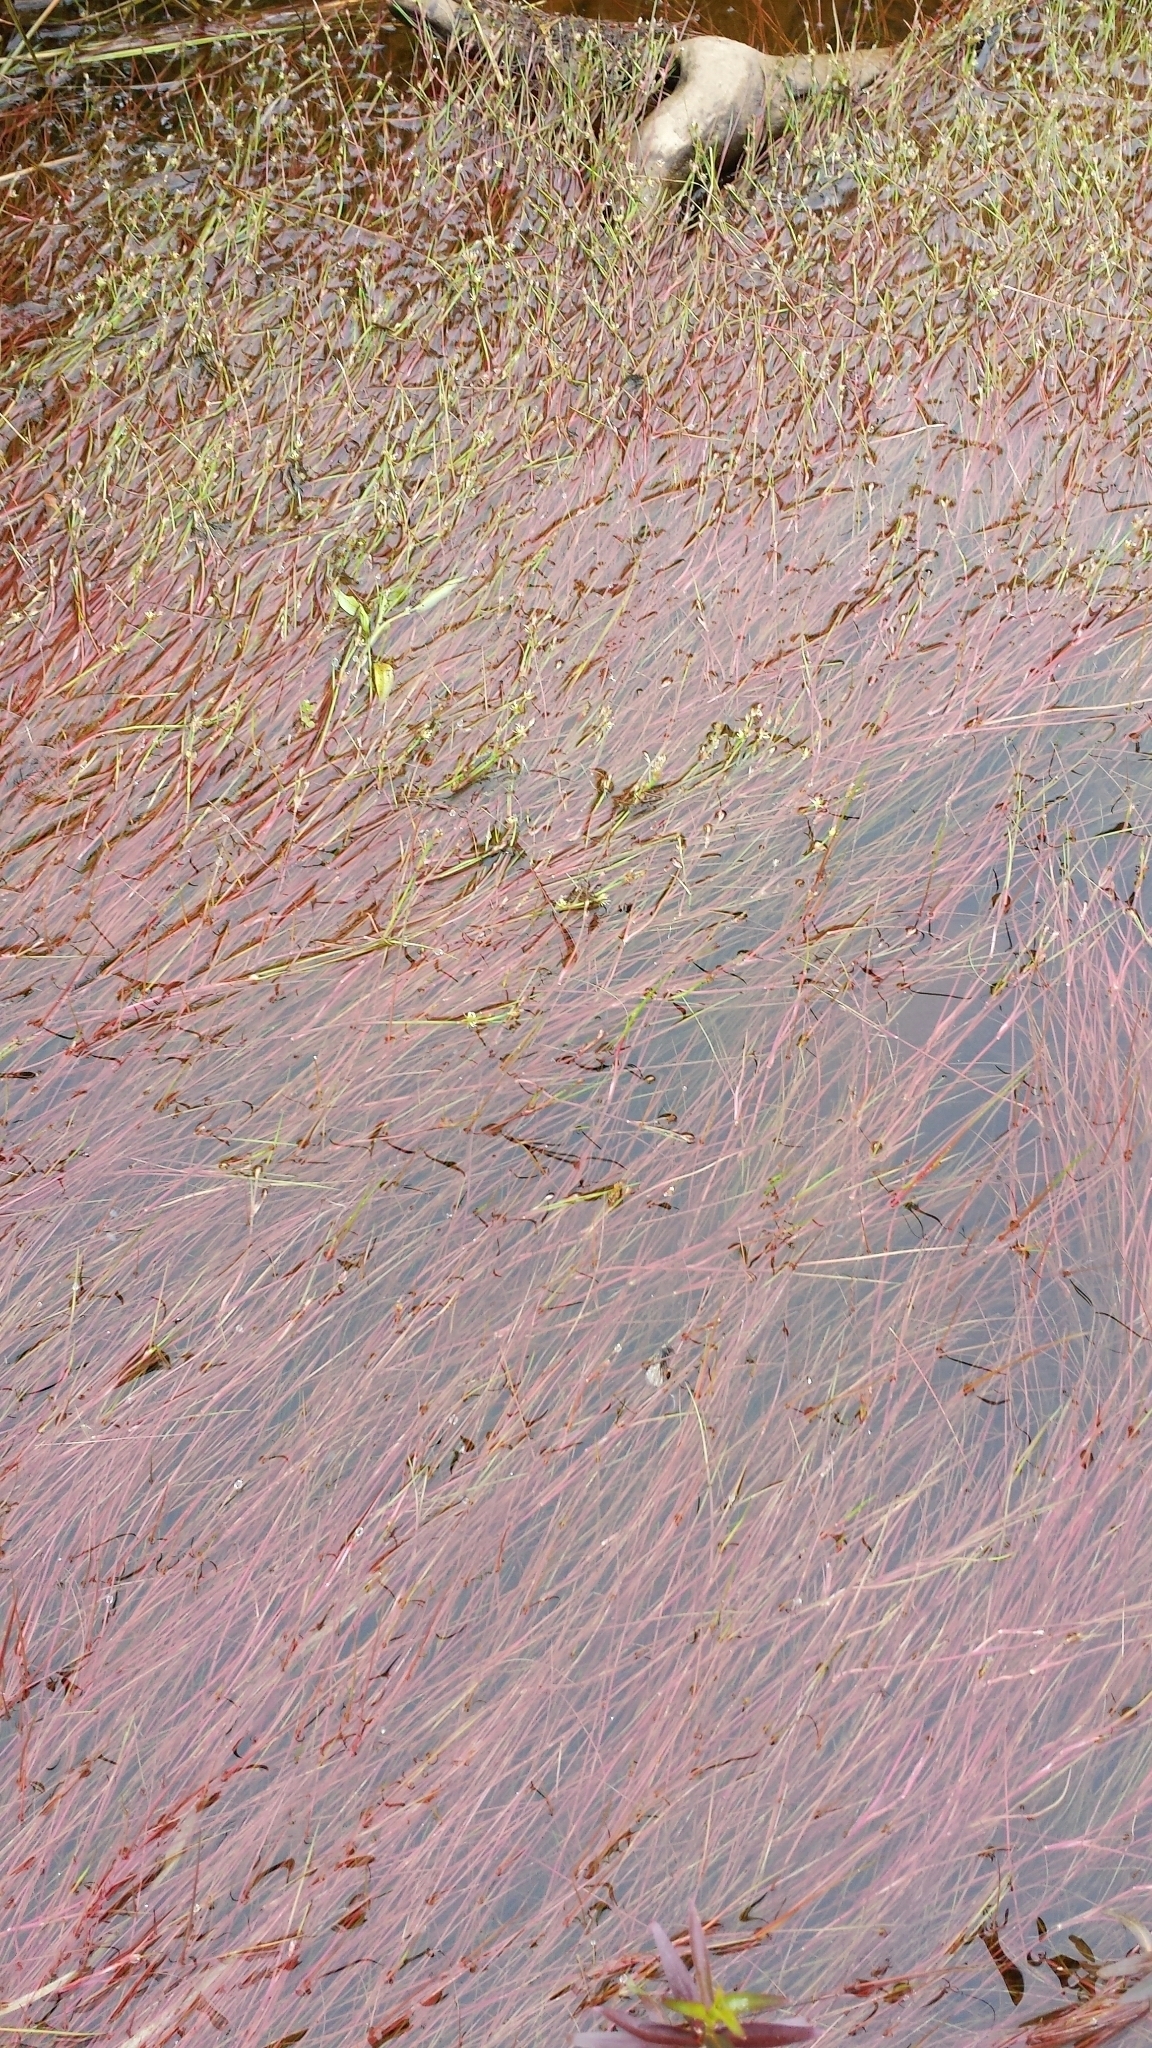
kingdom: Plantae
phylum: Tracheophyta
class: Liliopsida
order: Poales
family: Juncaceae
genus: Juncus
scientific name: Juncus bulbosus
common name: Bulbous rush
